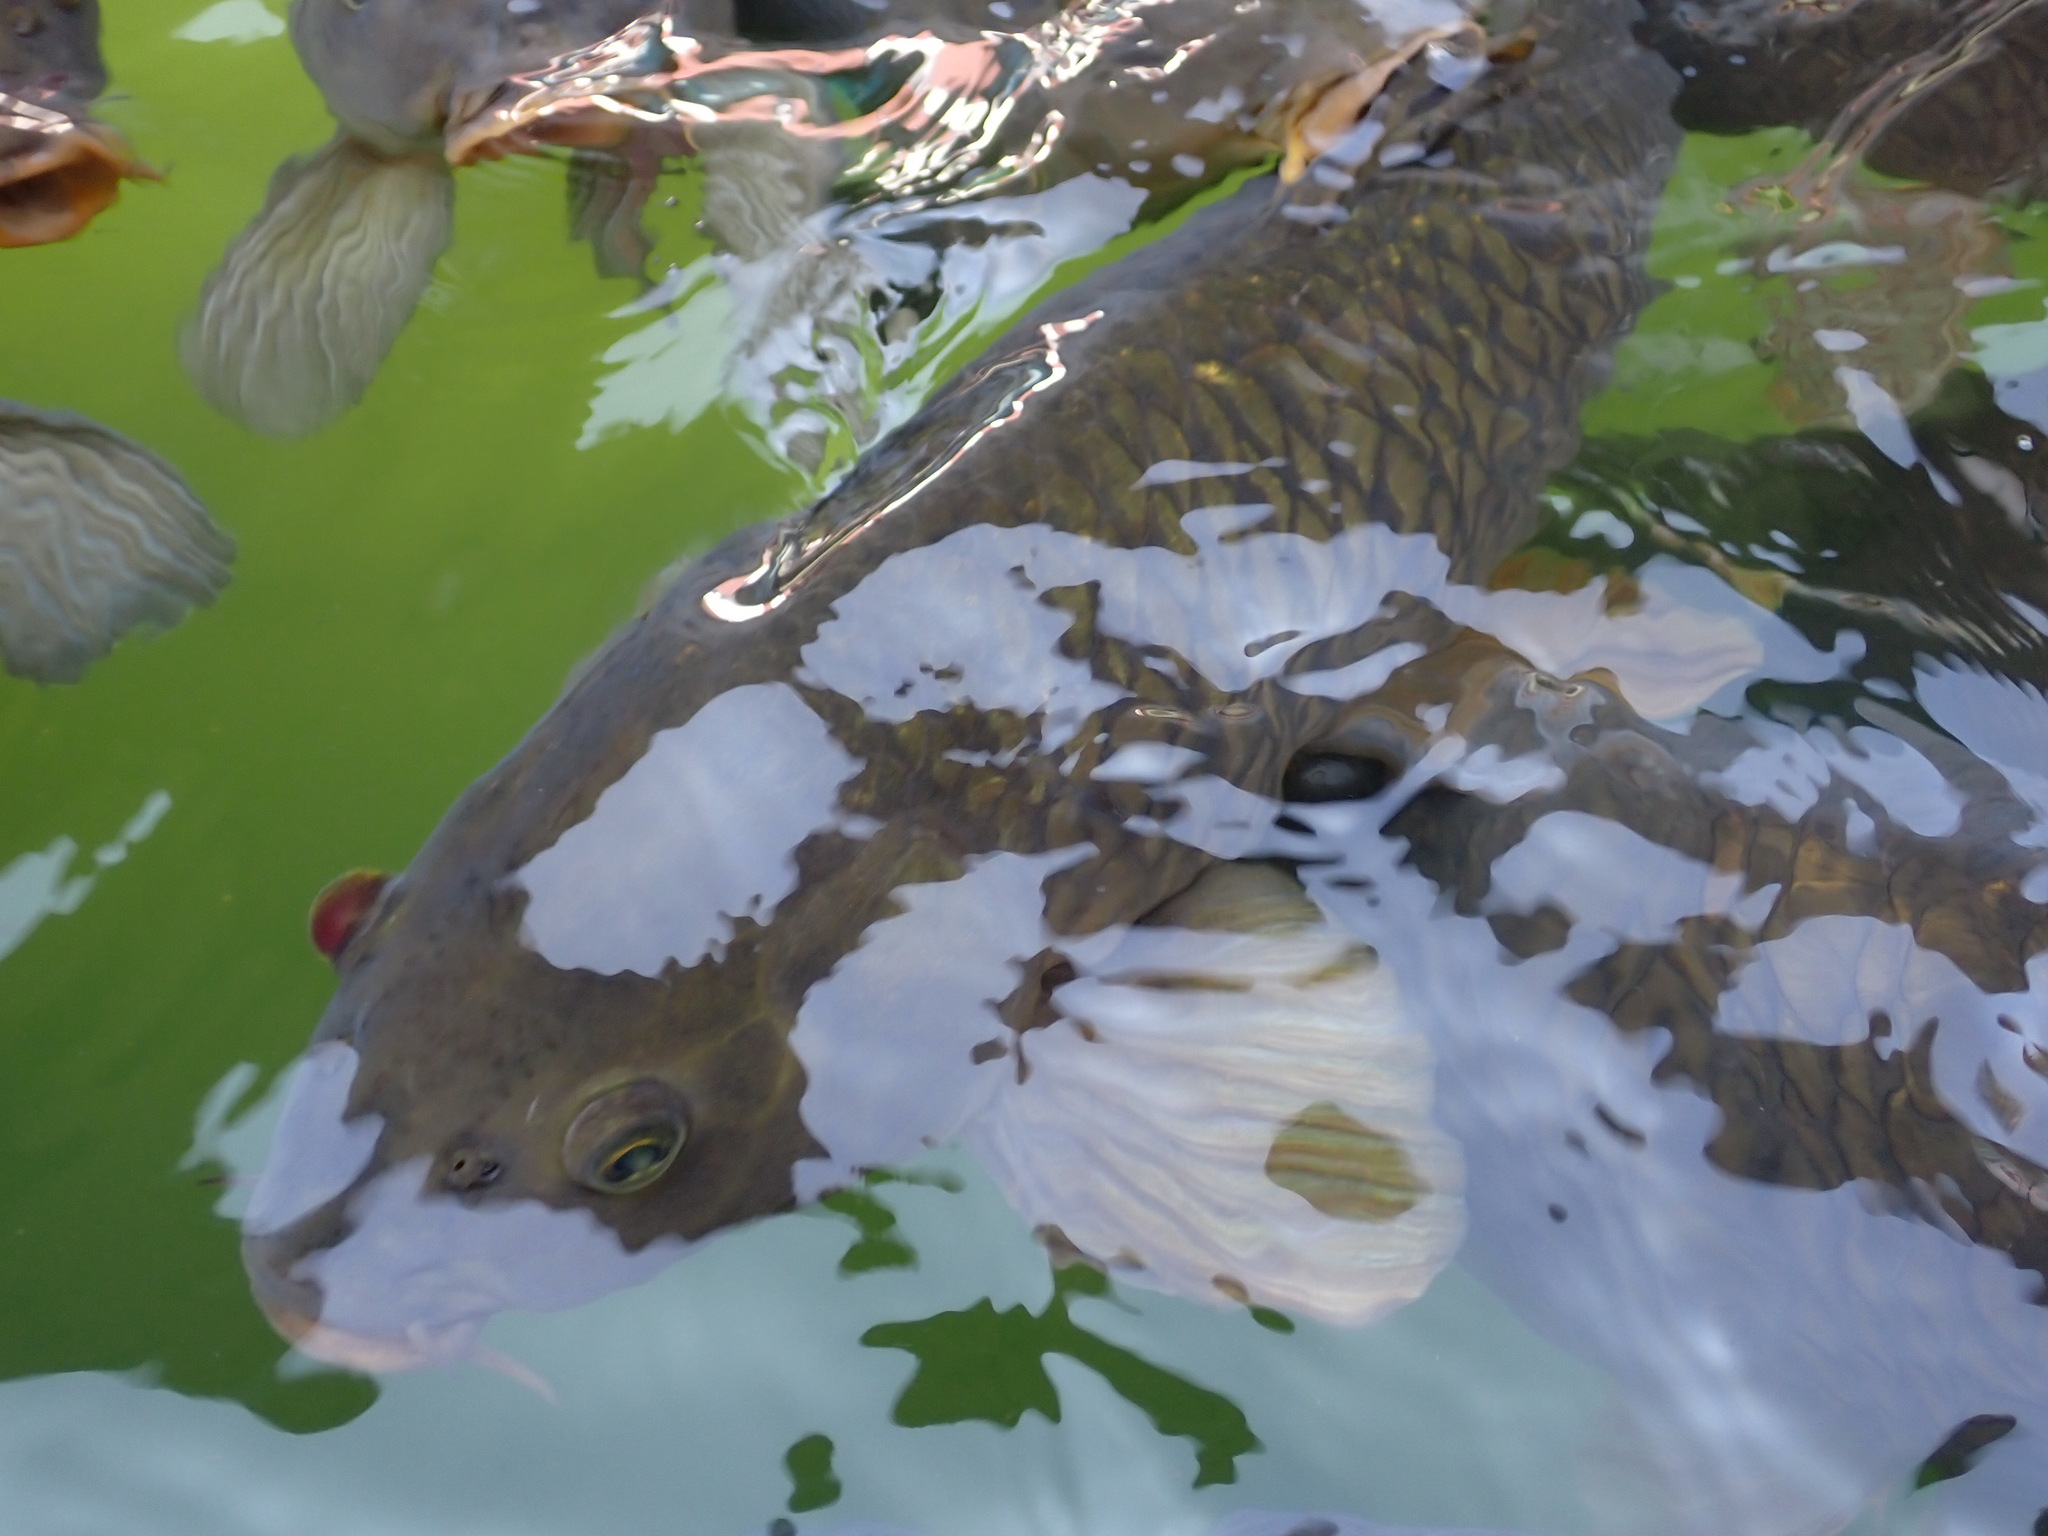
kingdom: Animalia
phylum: Chordata
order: Cypriniformes
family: Cyprinidae
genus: Cyprinus
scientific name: Cyprinus carpio
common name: Common carp
